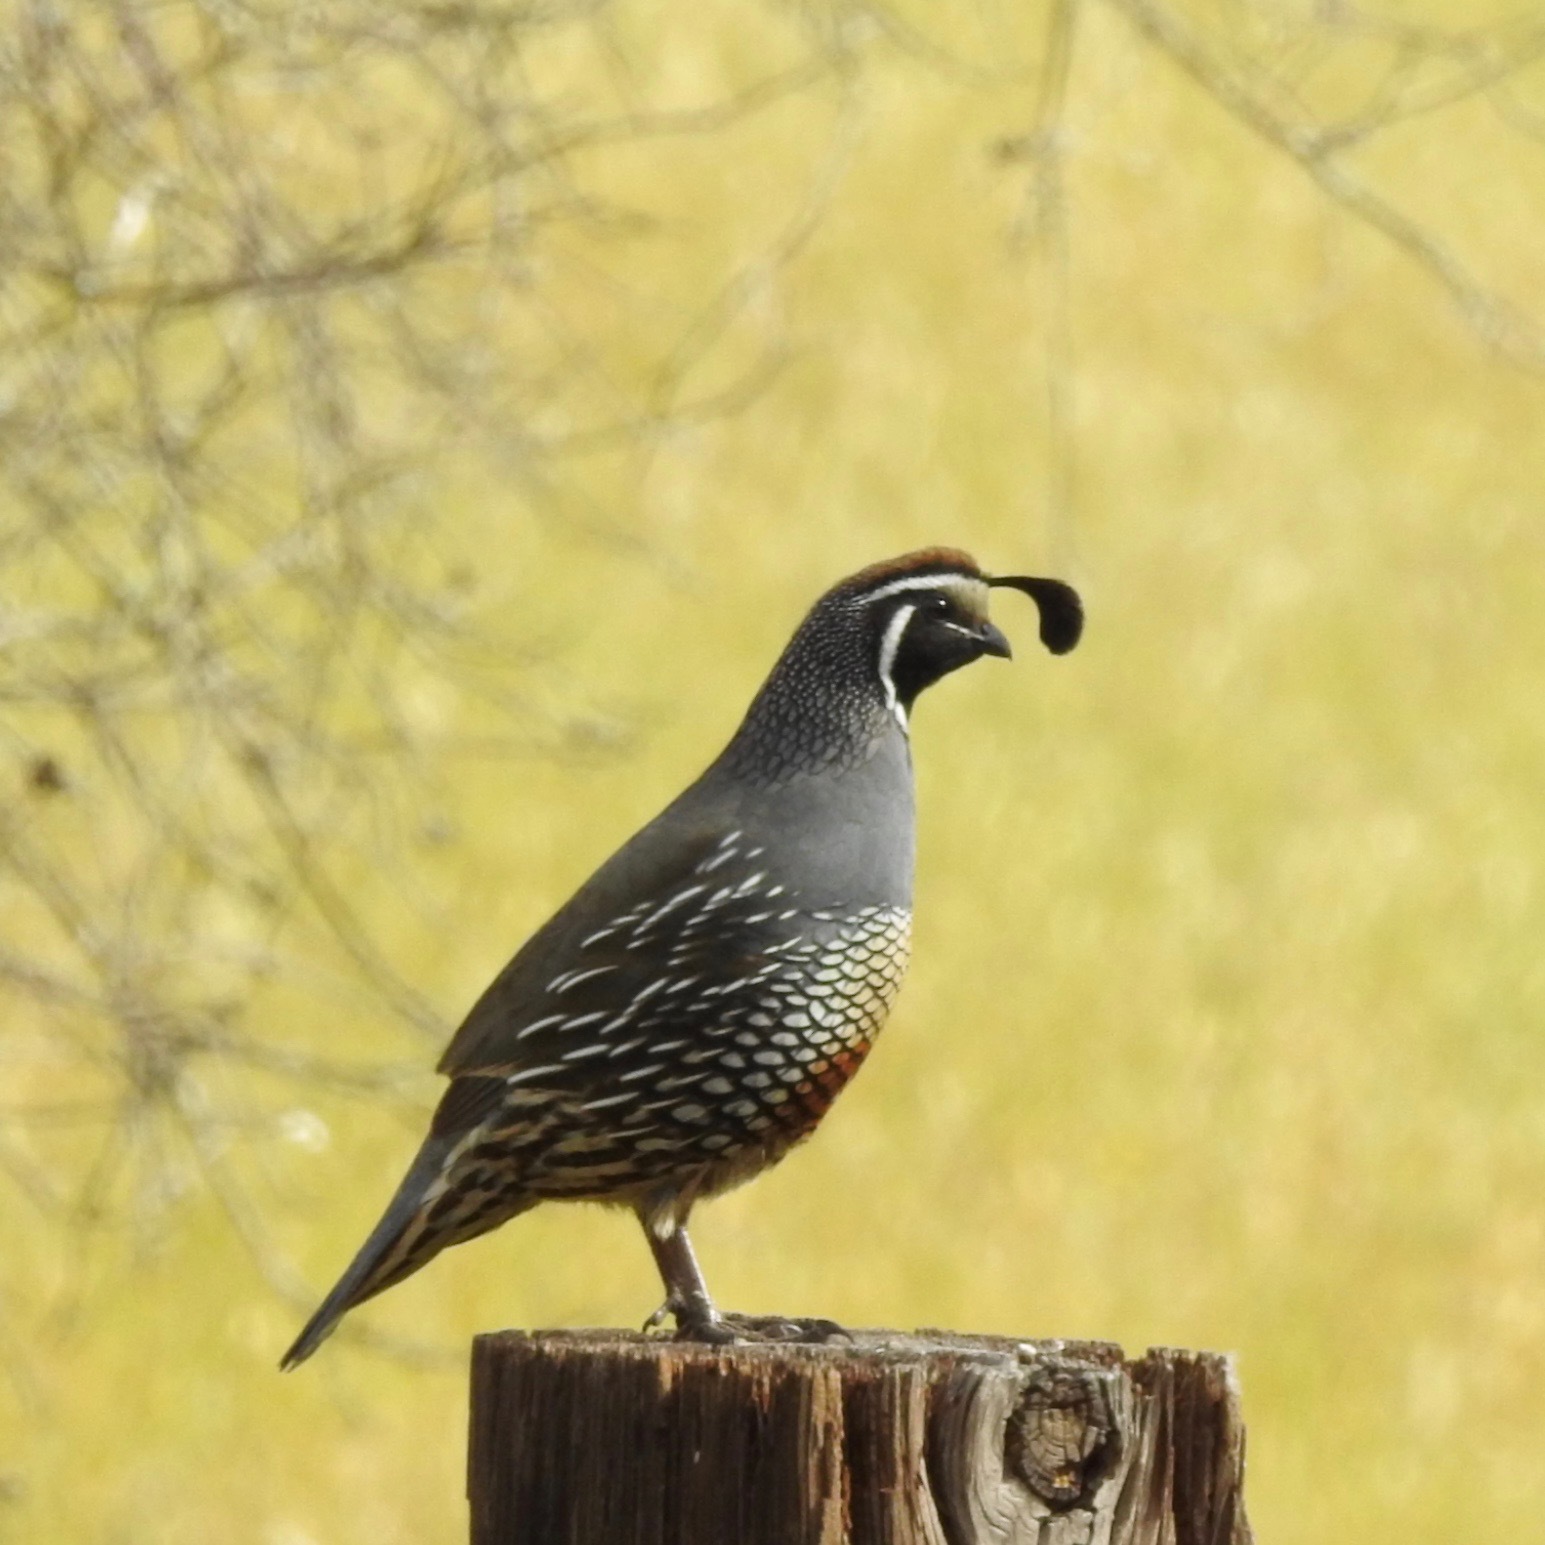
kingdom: Animalia
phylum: Chordata
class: Aves
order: Galliformes
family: Odontophoridae
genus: Callipepla
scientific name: Callipepla californica
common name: California quail
